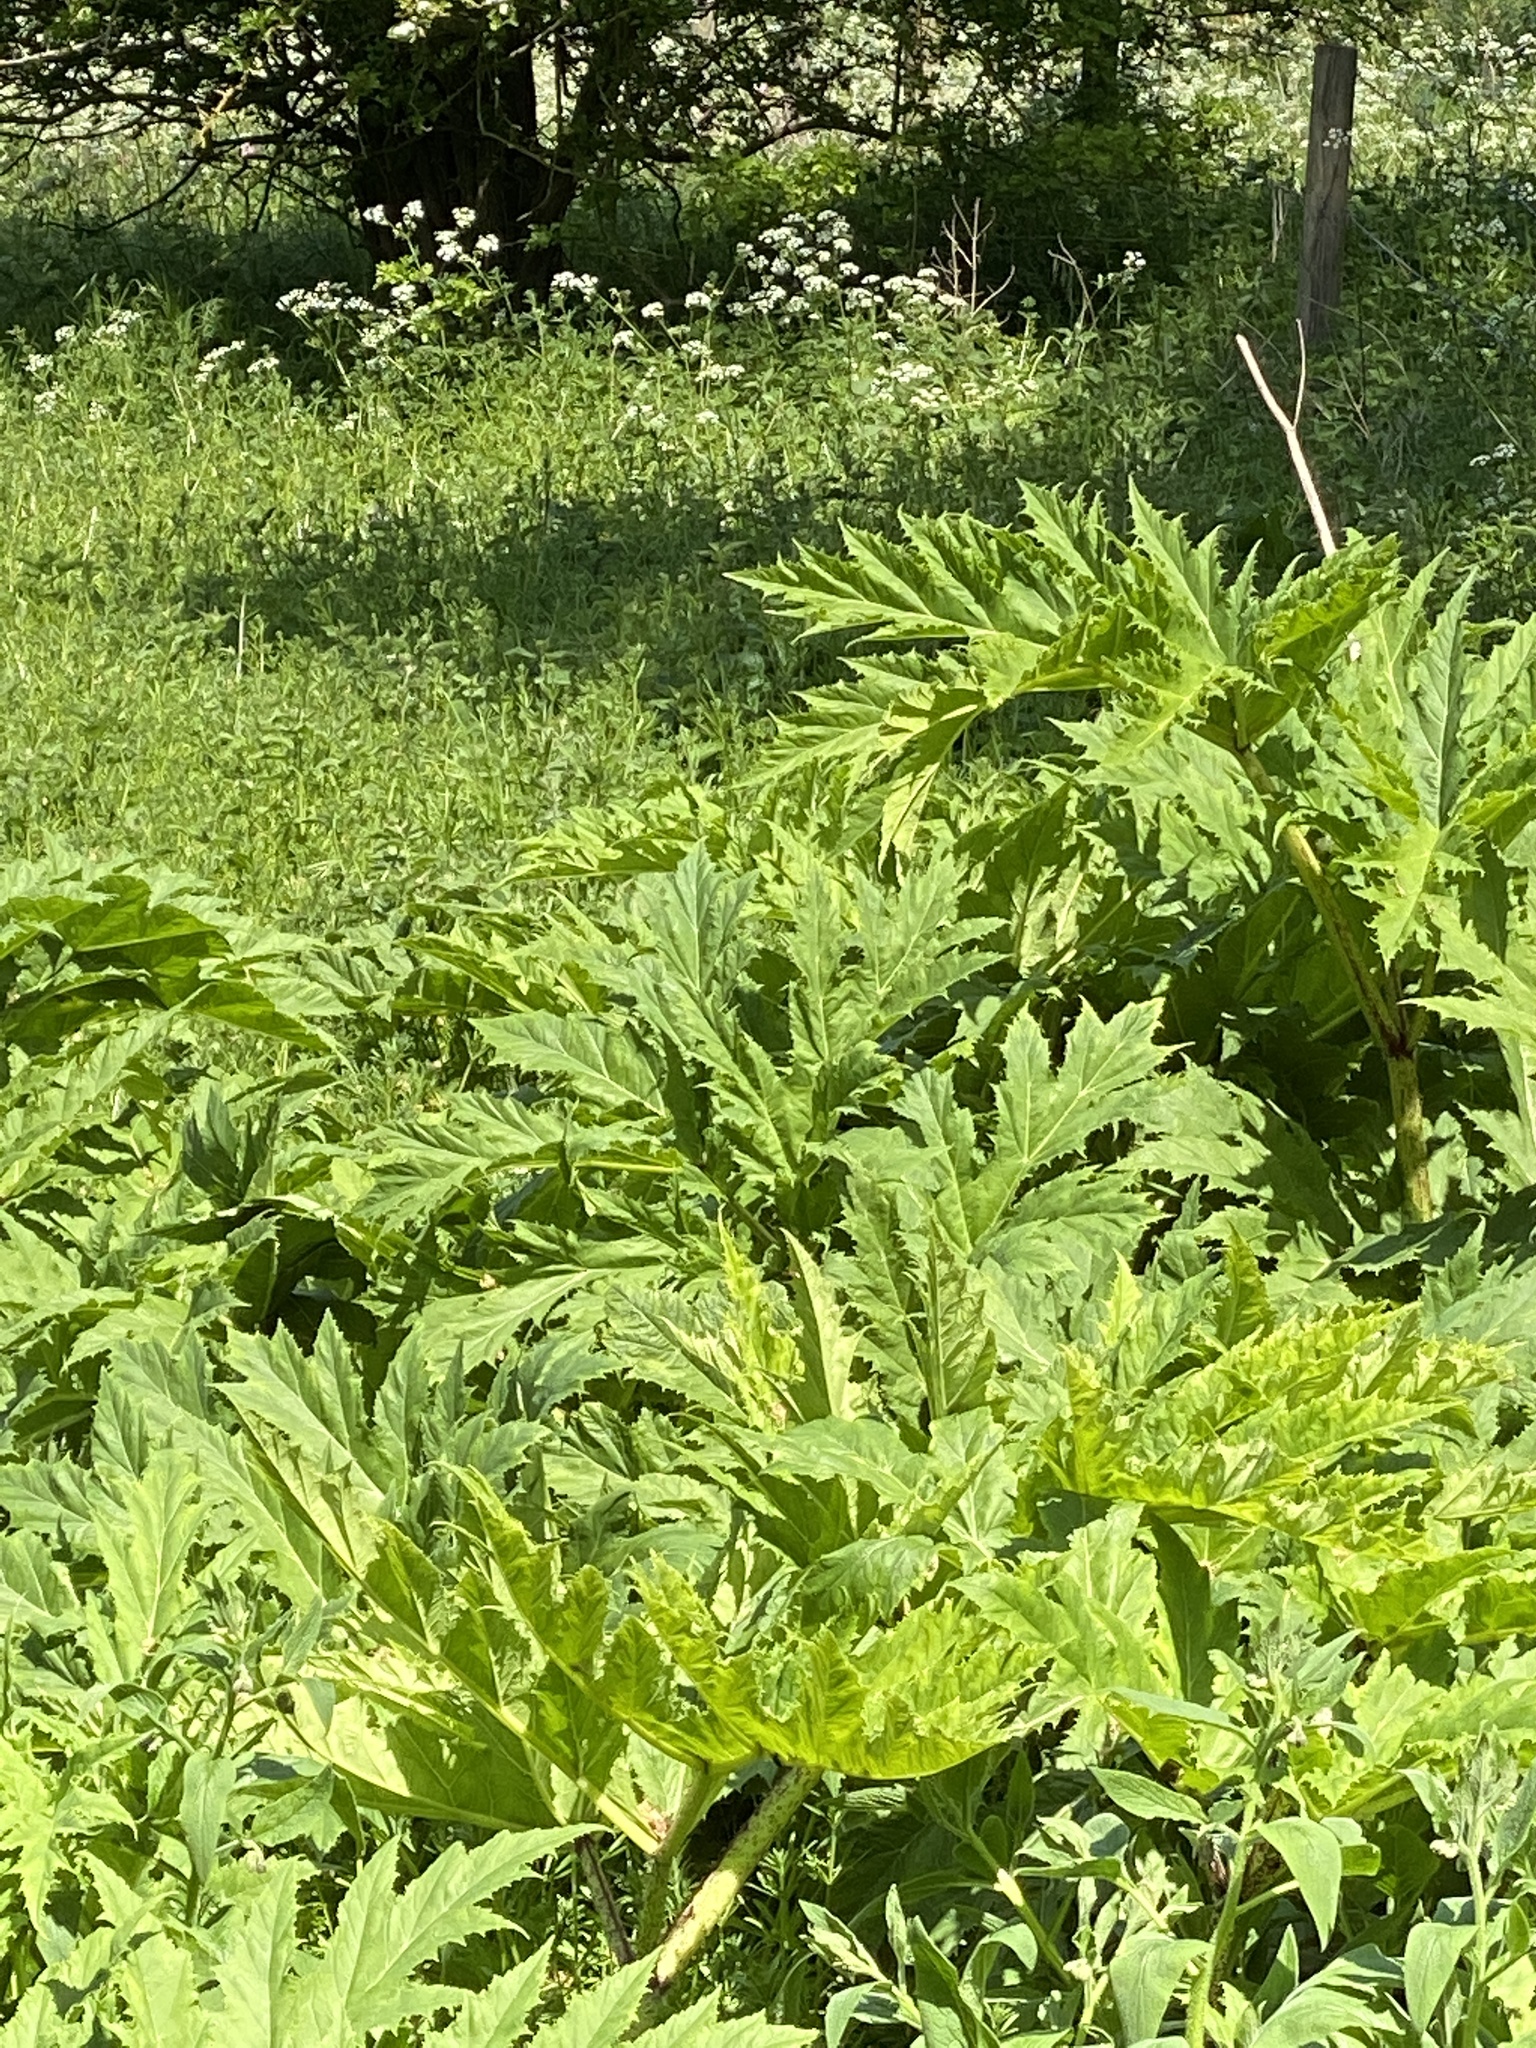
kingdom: Plantae
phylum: Tracheophyta
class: Magnoliopsida
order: Apiales
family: Apiaceae
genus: Heracleum
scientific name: Heracleum mantegazzianum
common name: Giant hogweed
